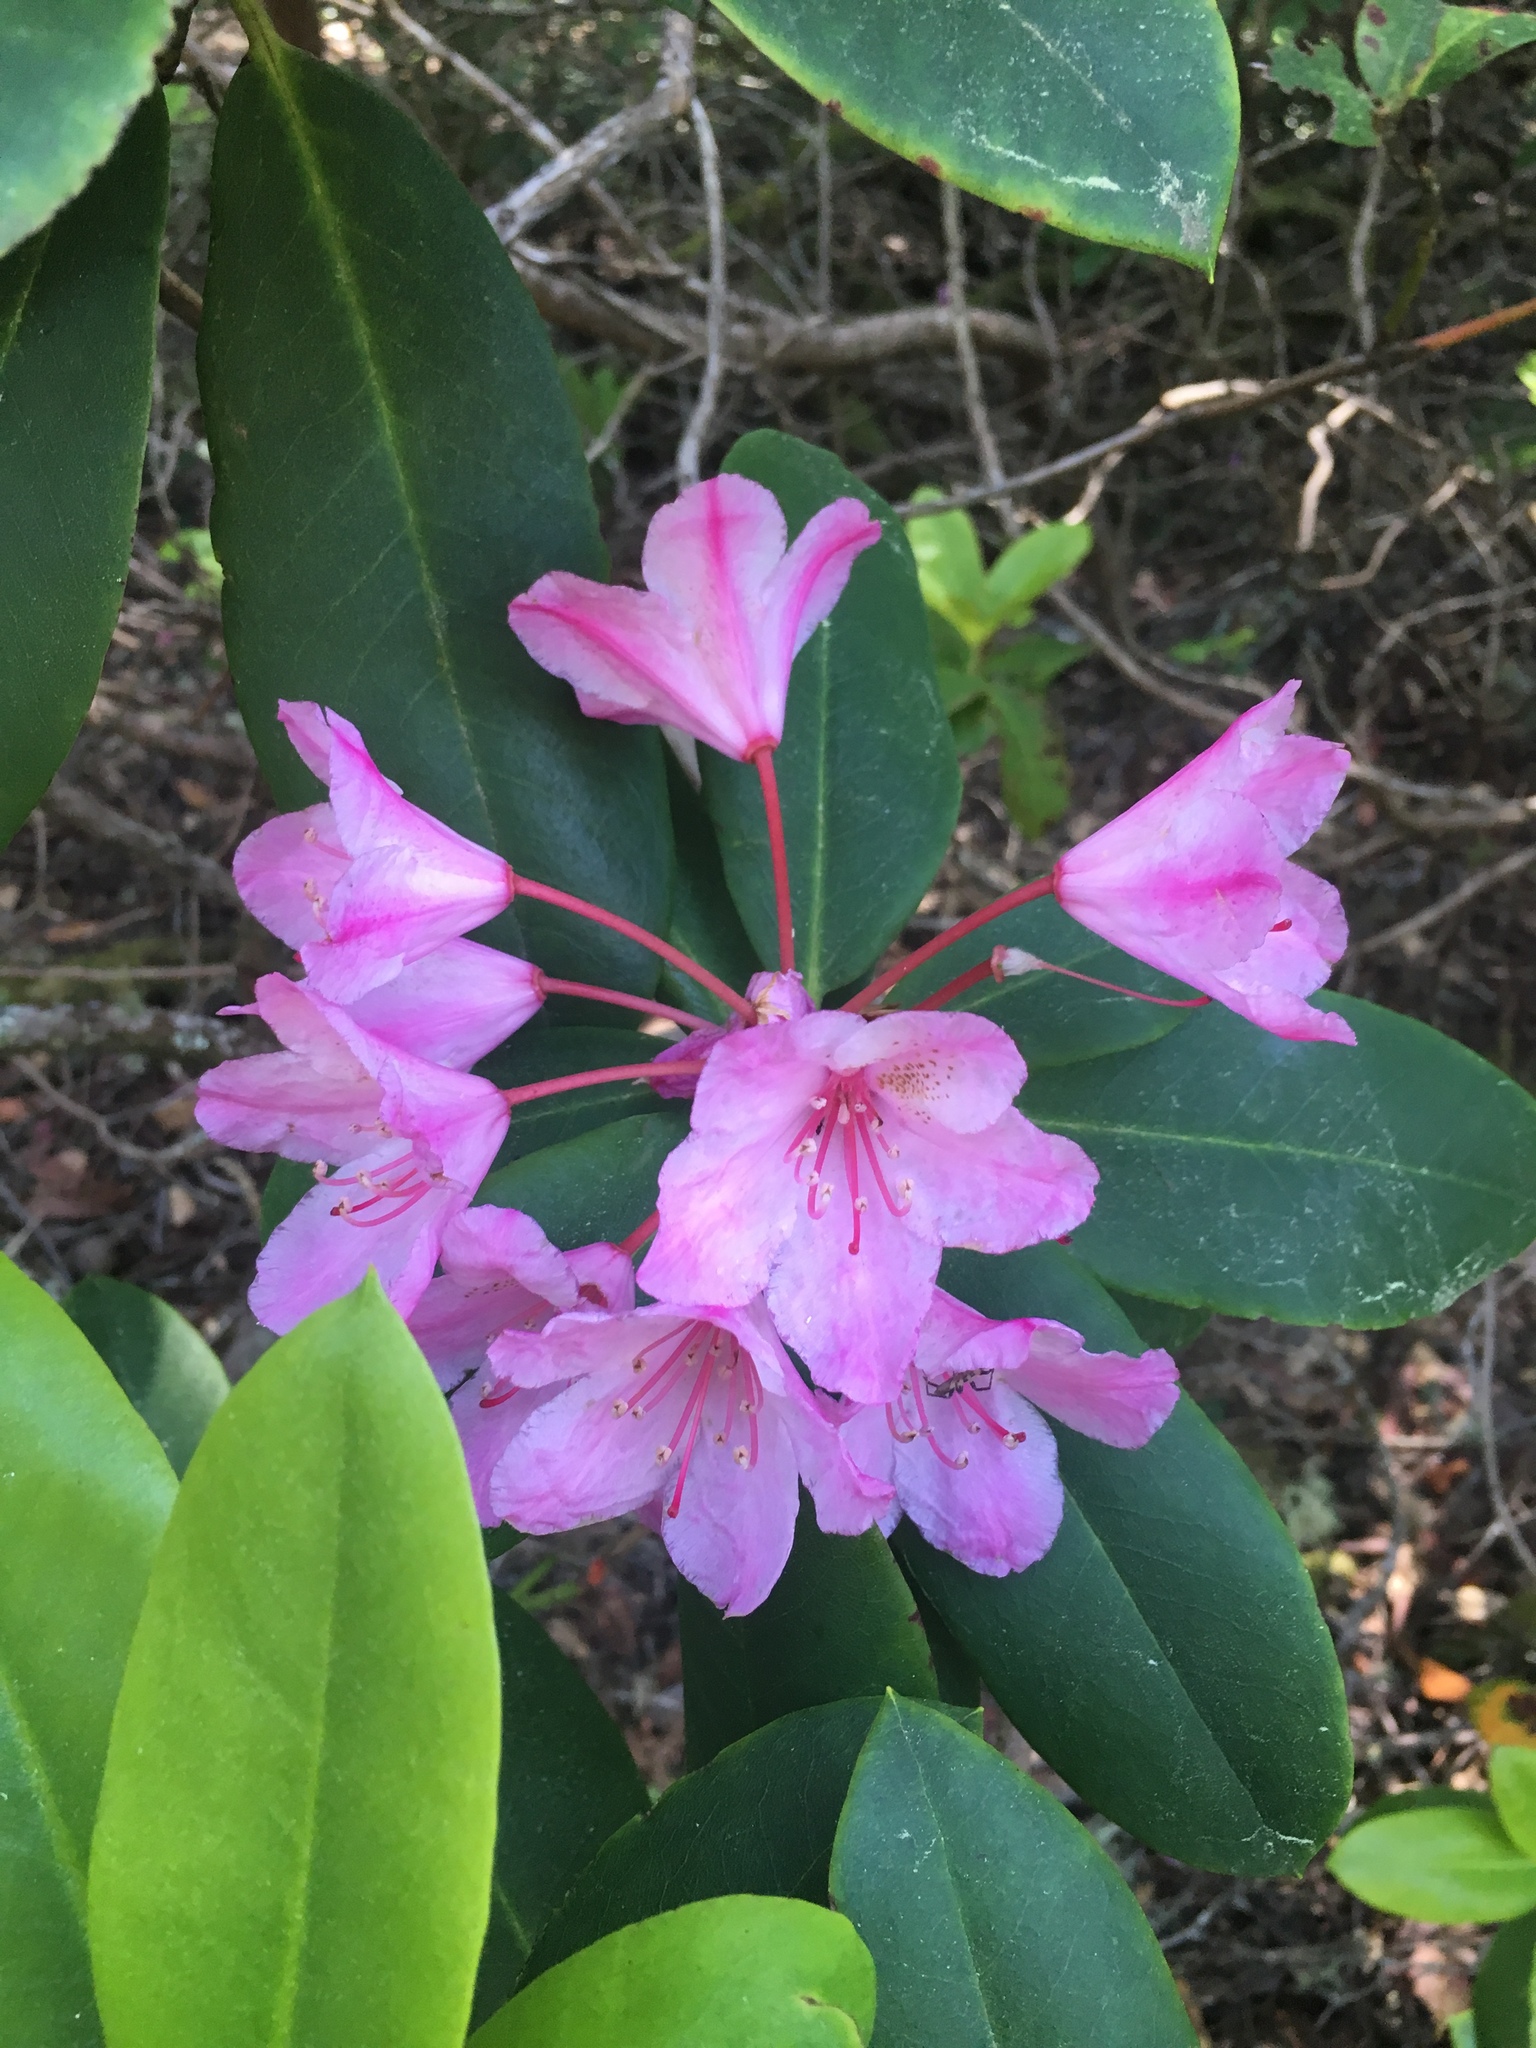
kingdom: Plantae
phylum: Tracheophyta
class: Magnoliopsida
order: Ericales
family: Ericaceae
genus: Rhododendron
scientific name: Rhododendron macrophyllum
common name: California rose bay
